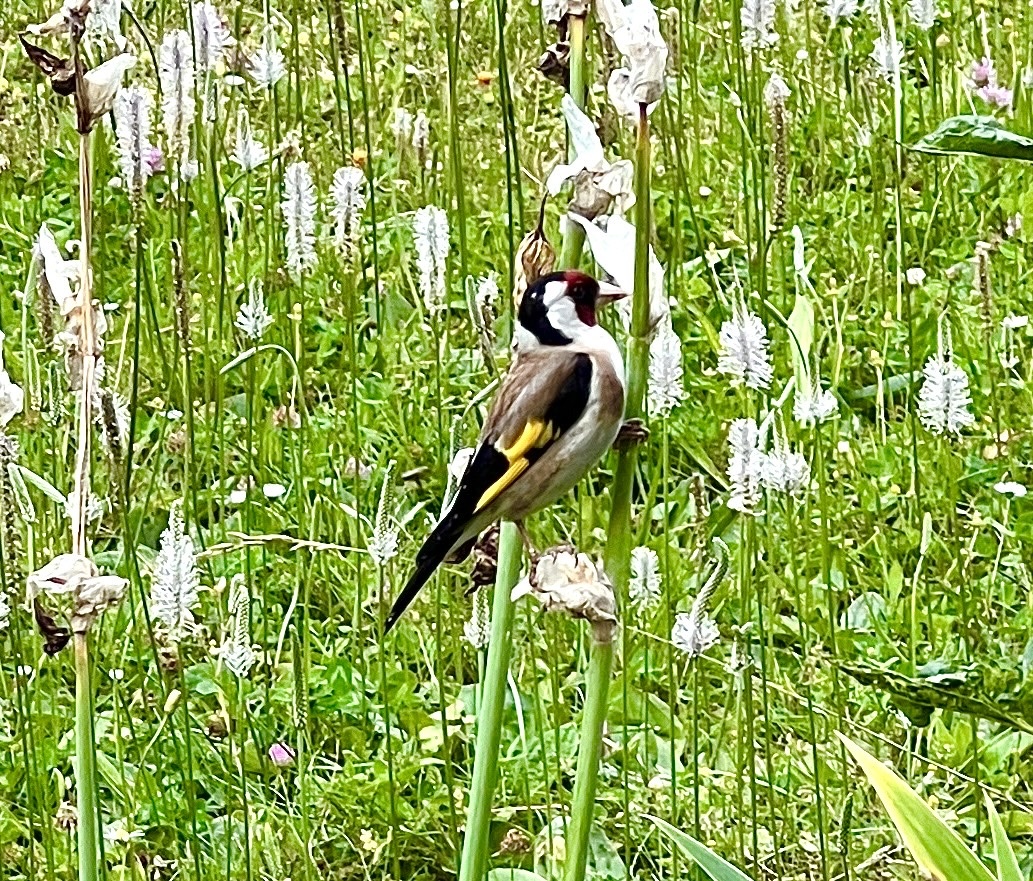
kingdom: Animalia
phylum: Chordata
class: Aves
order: Passeriformes
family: Fringillidae
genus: Carduelis
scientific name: Carduelis carduelis
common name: European goldfinch
